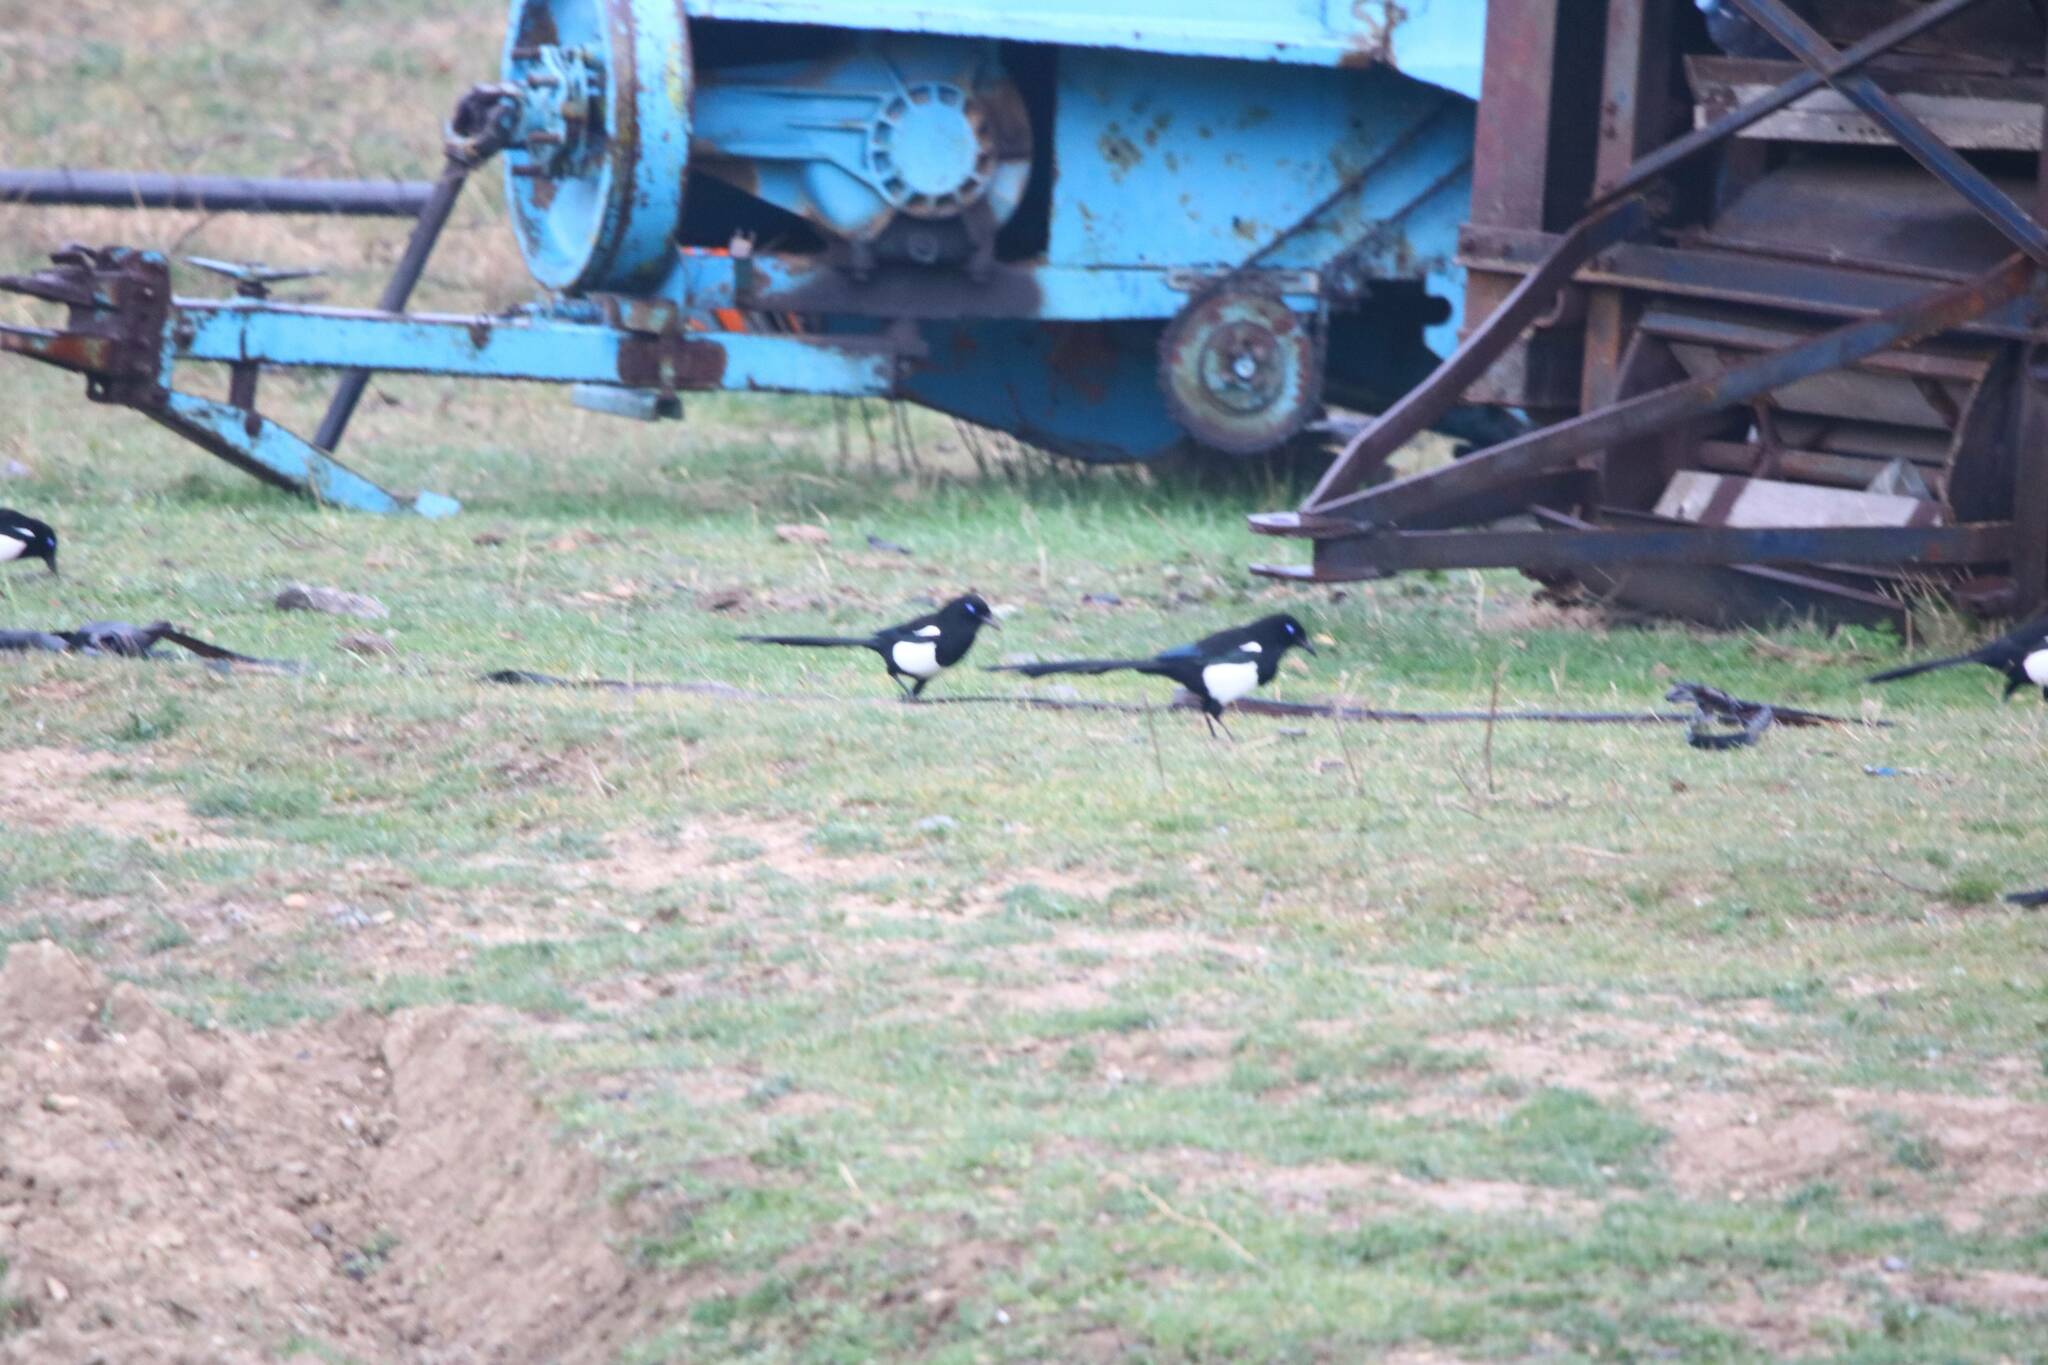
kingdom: Animalia
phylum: Chordata
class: Aves
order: Passeriformes
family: Corvidae
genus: Pica
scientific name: Pica mauritanica
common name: Maghreb magpie
